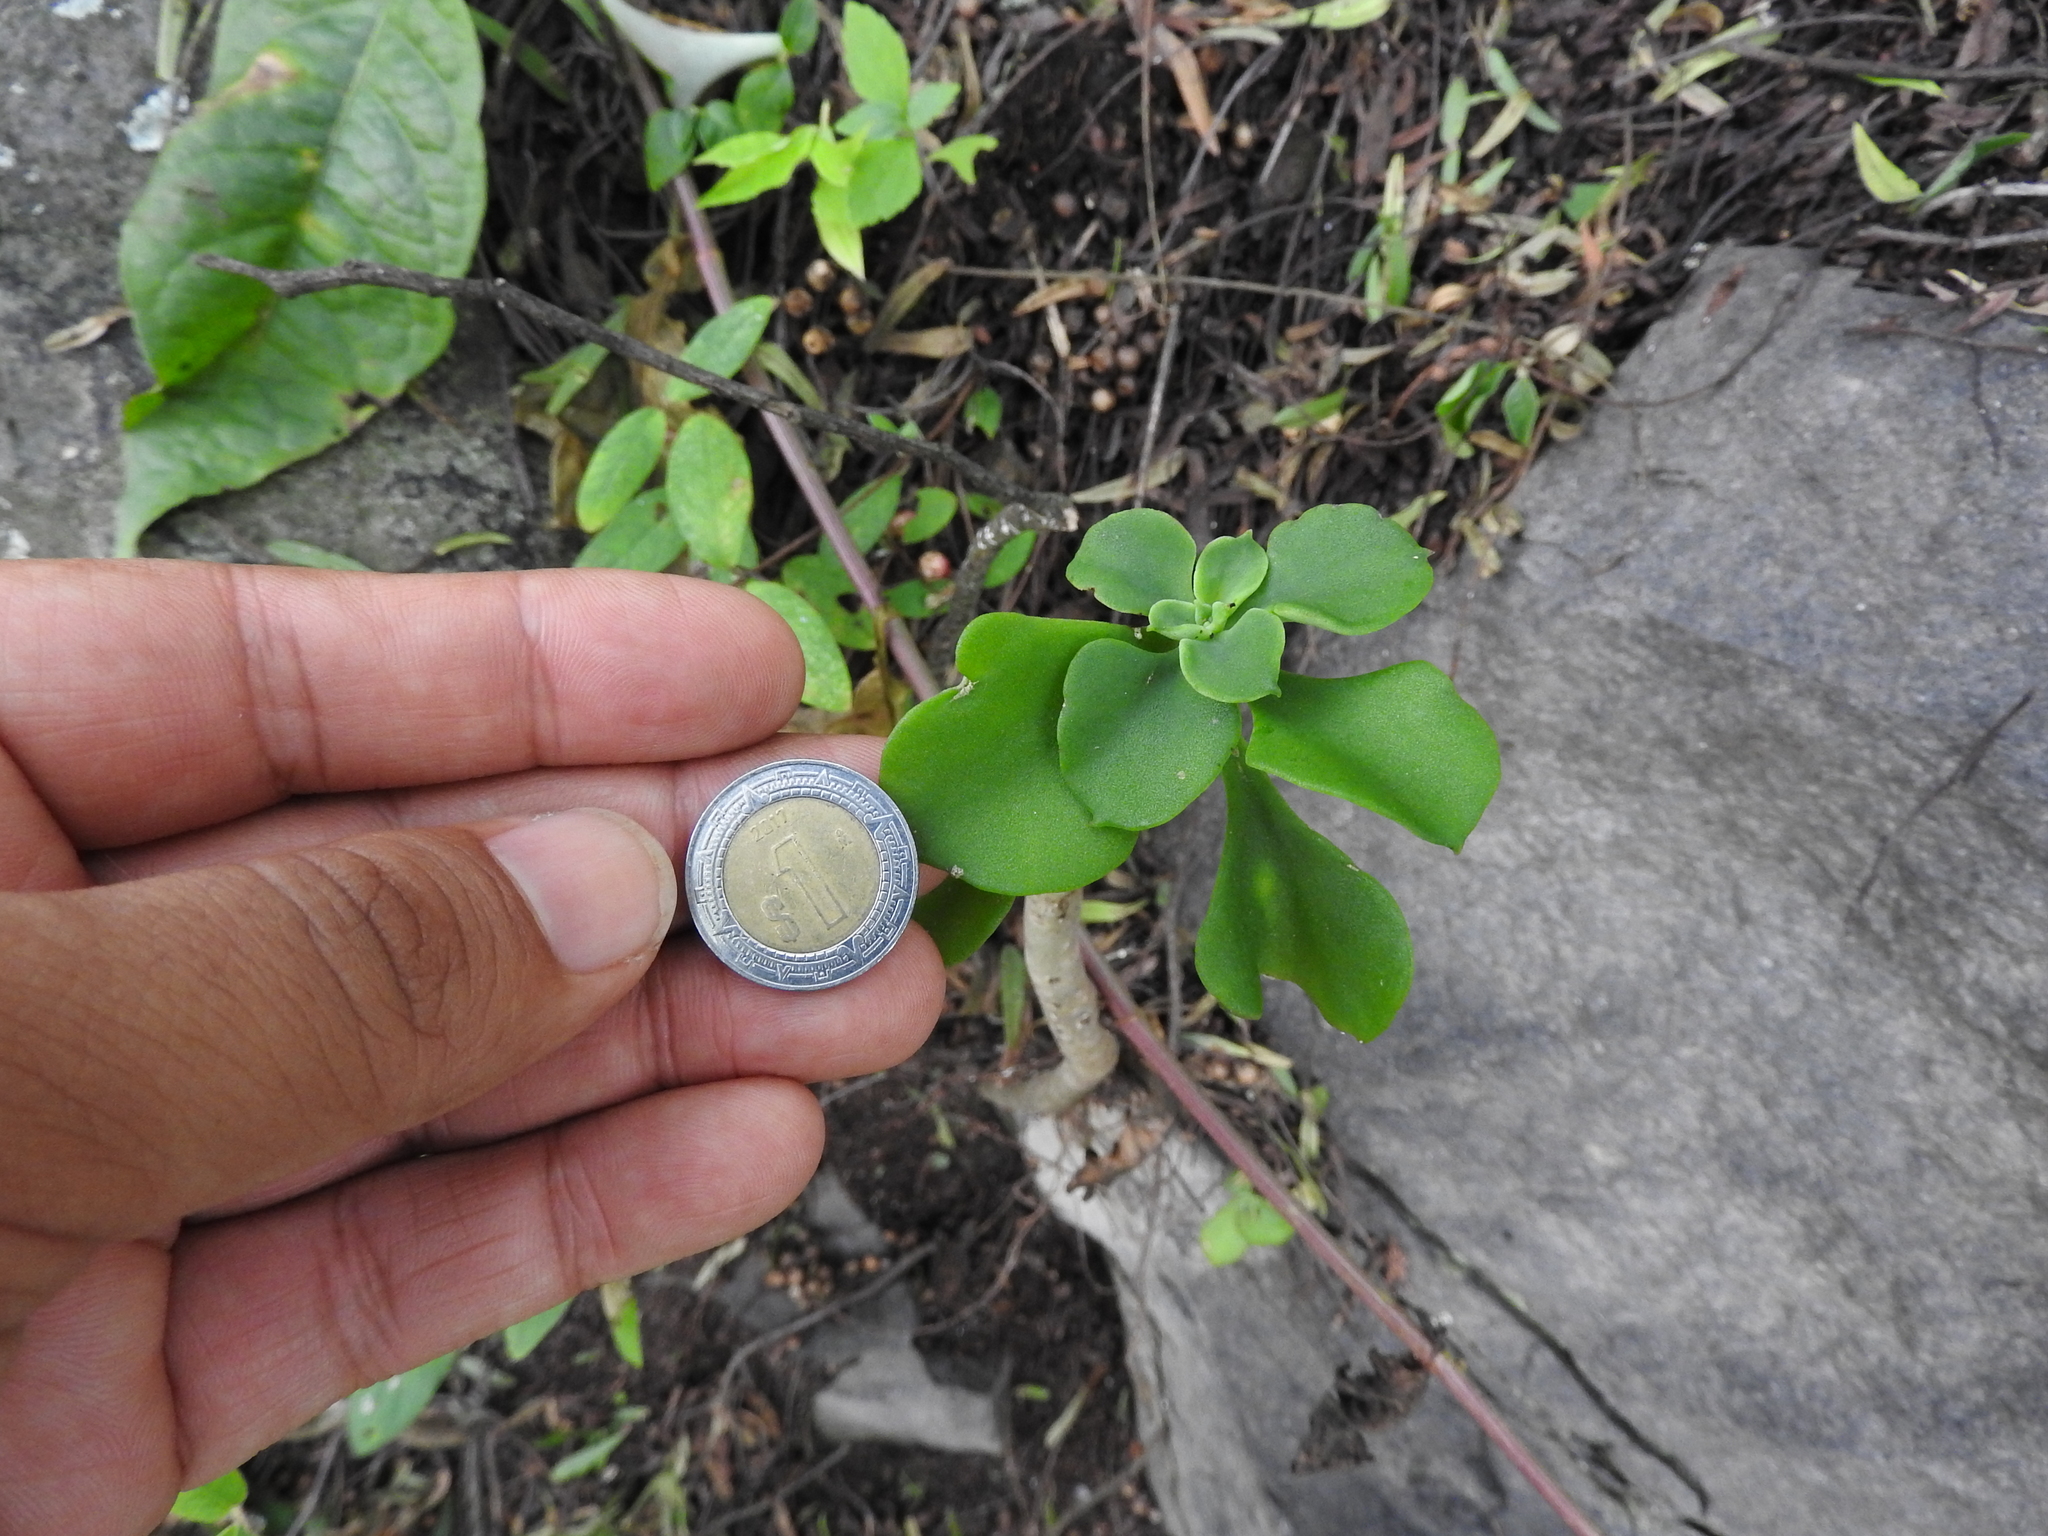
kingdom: Plantae
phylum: Tracheophyta
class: Magnoliopsida
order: Saxifragales
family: Crassulaceae
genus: Echeveria
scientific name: Echeveria chapalensis
